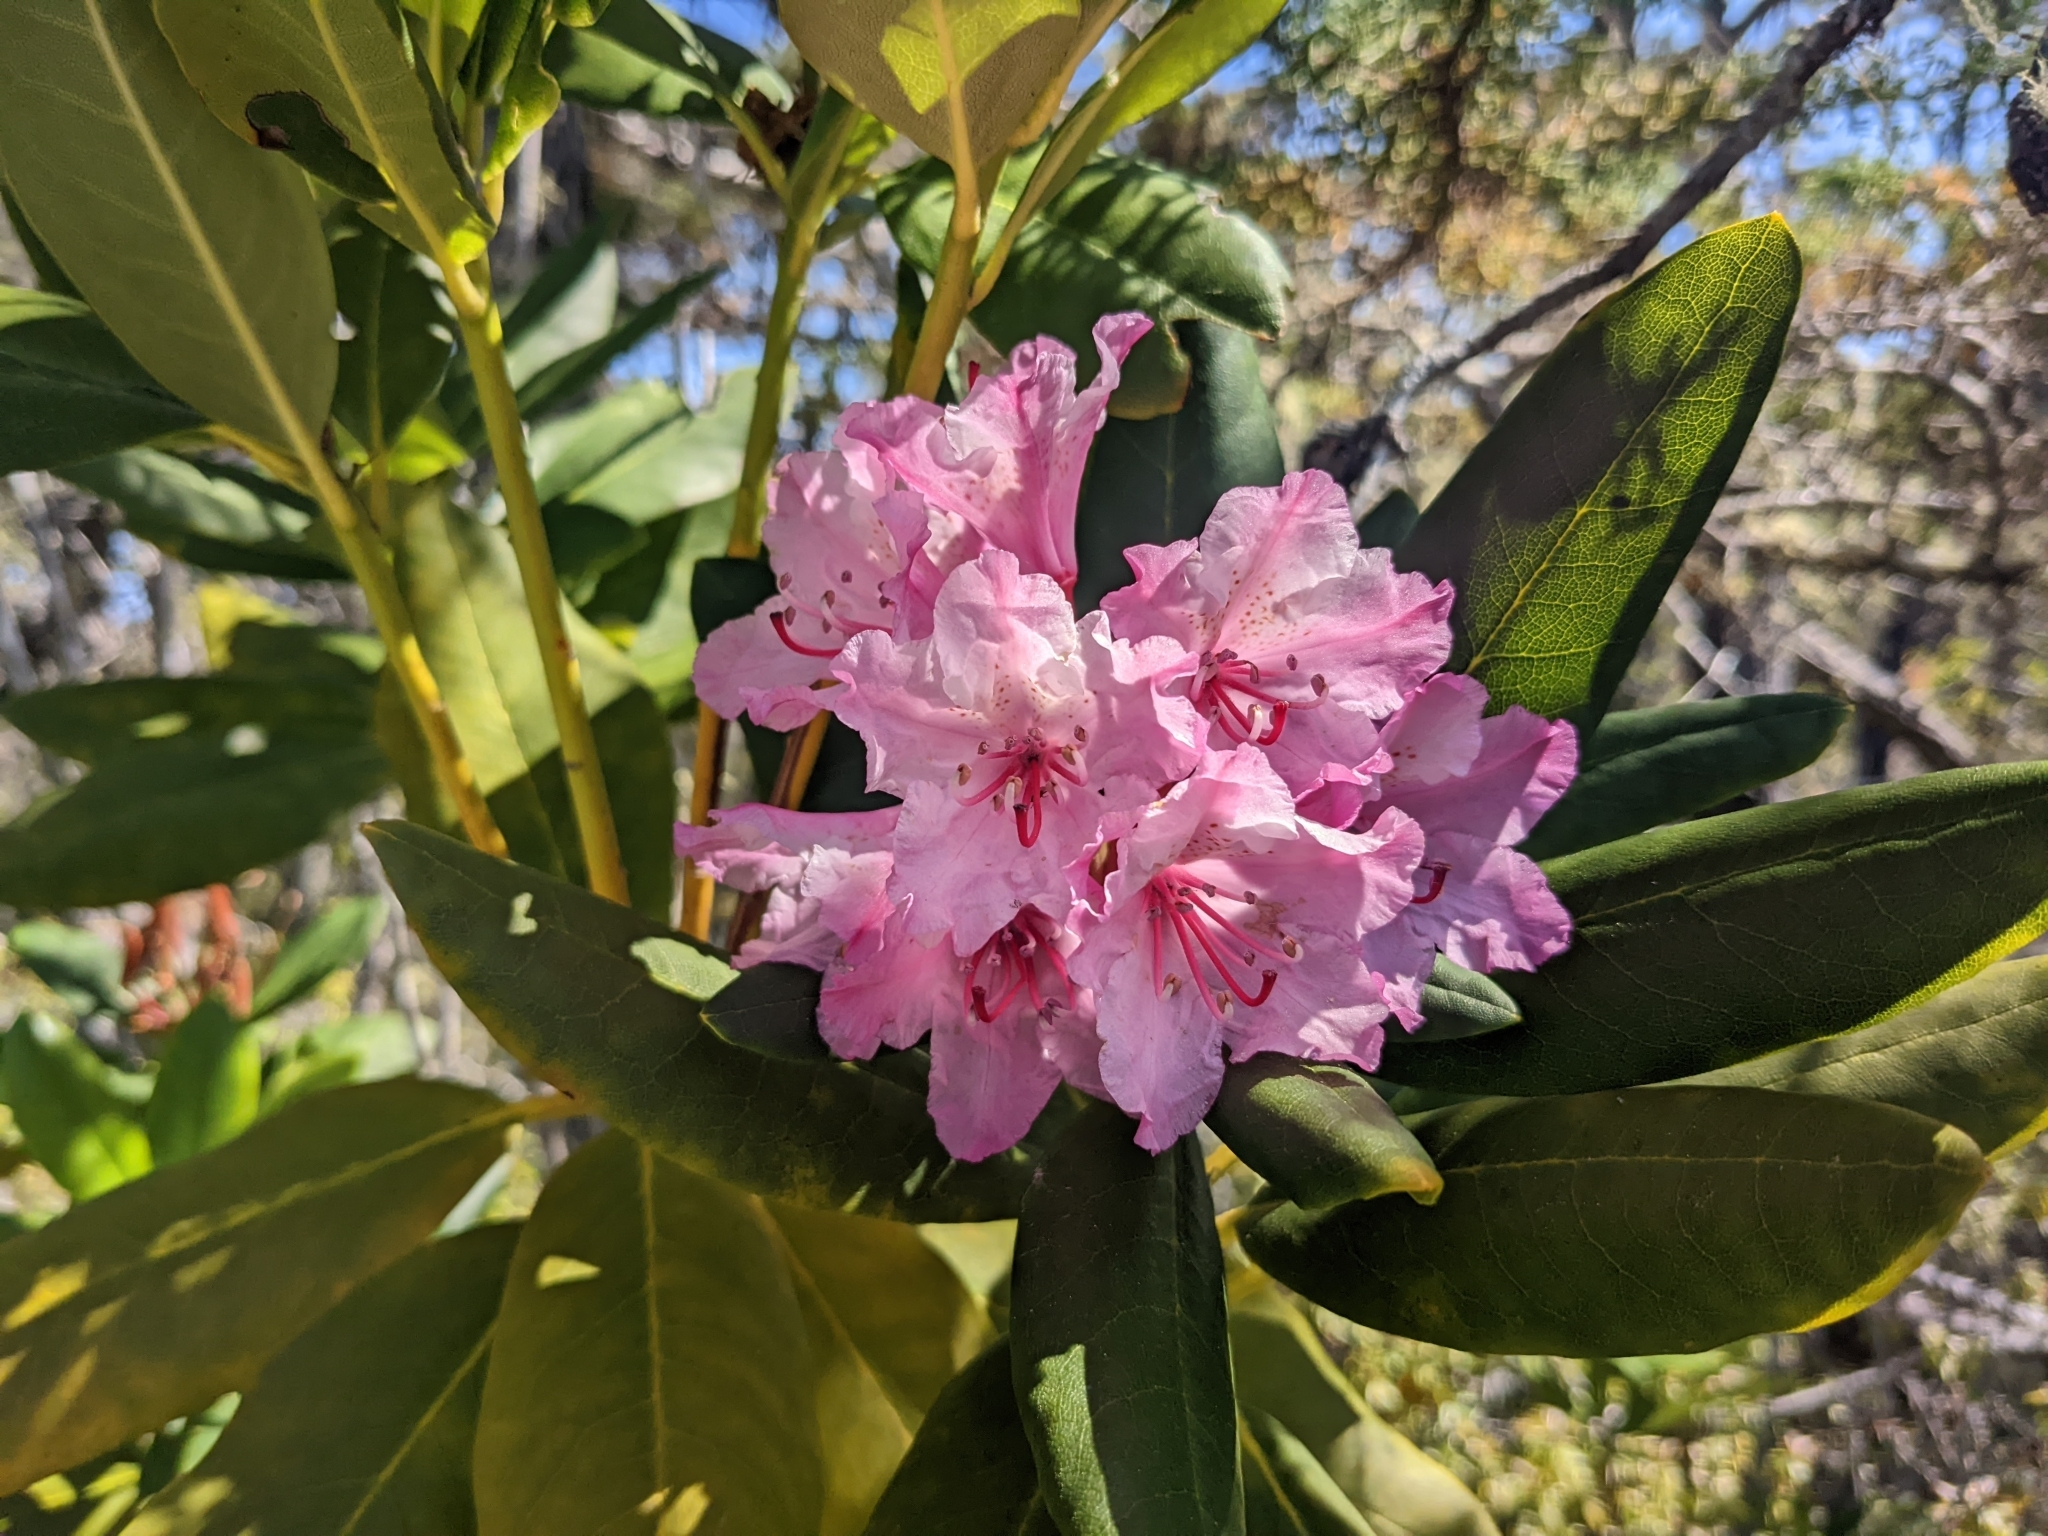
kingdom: Plantae
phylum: Tracheophyta
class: Magnoliopsida
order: Ericales
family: Ericaceae
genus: Rhododendron
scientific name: Rhododendron macrophyllum
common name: California rose bay
